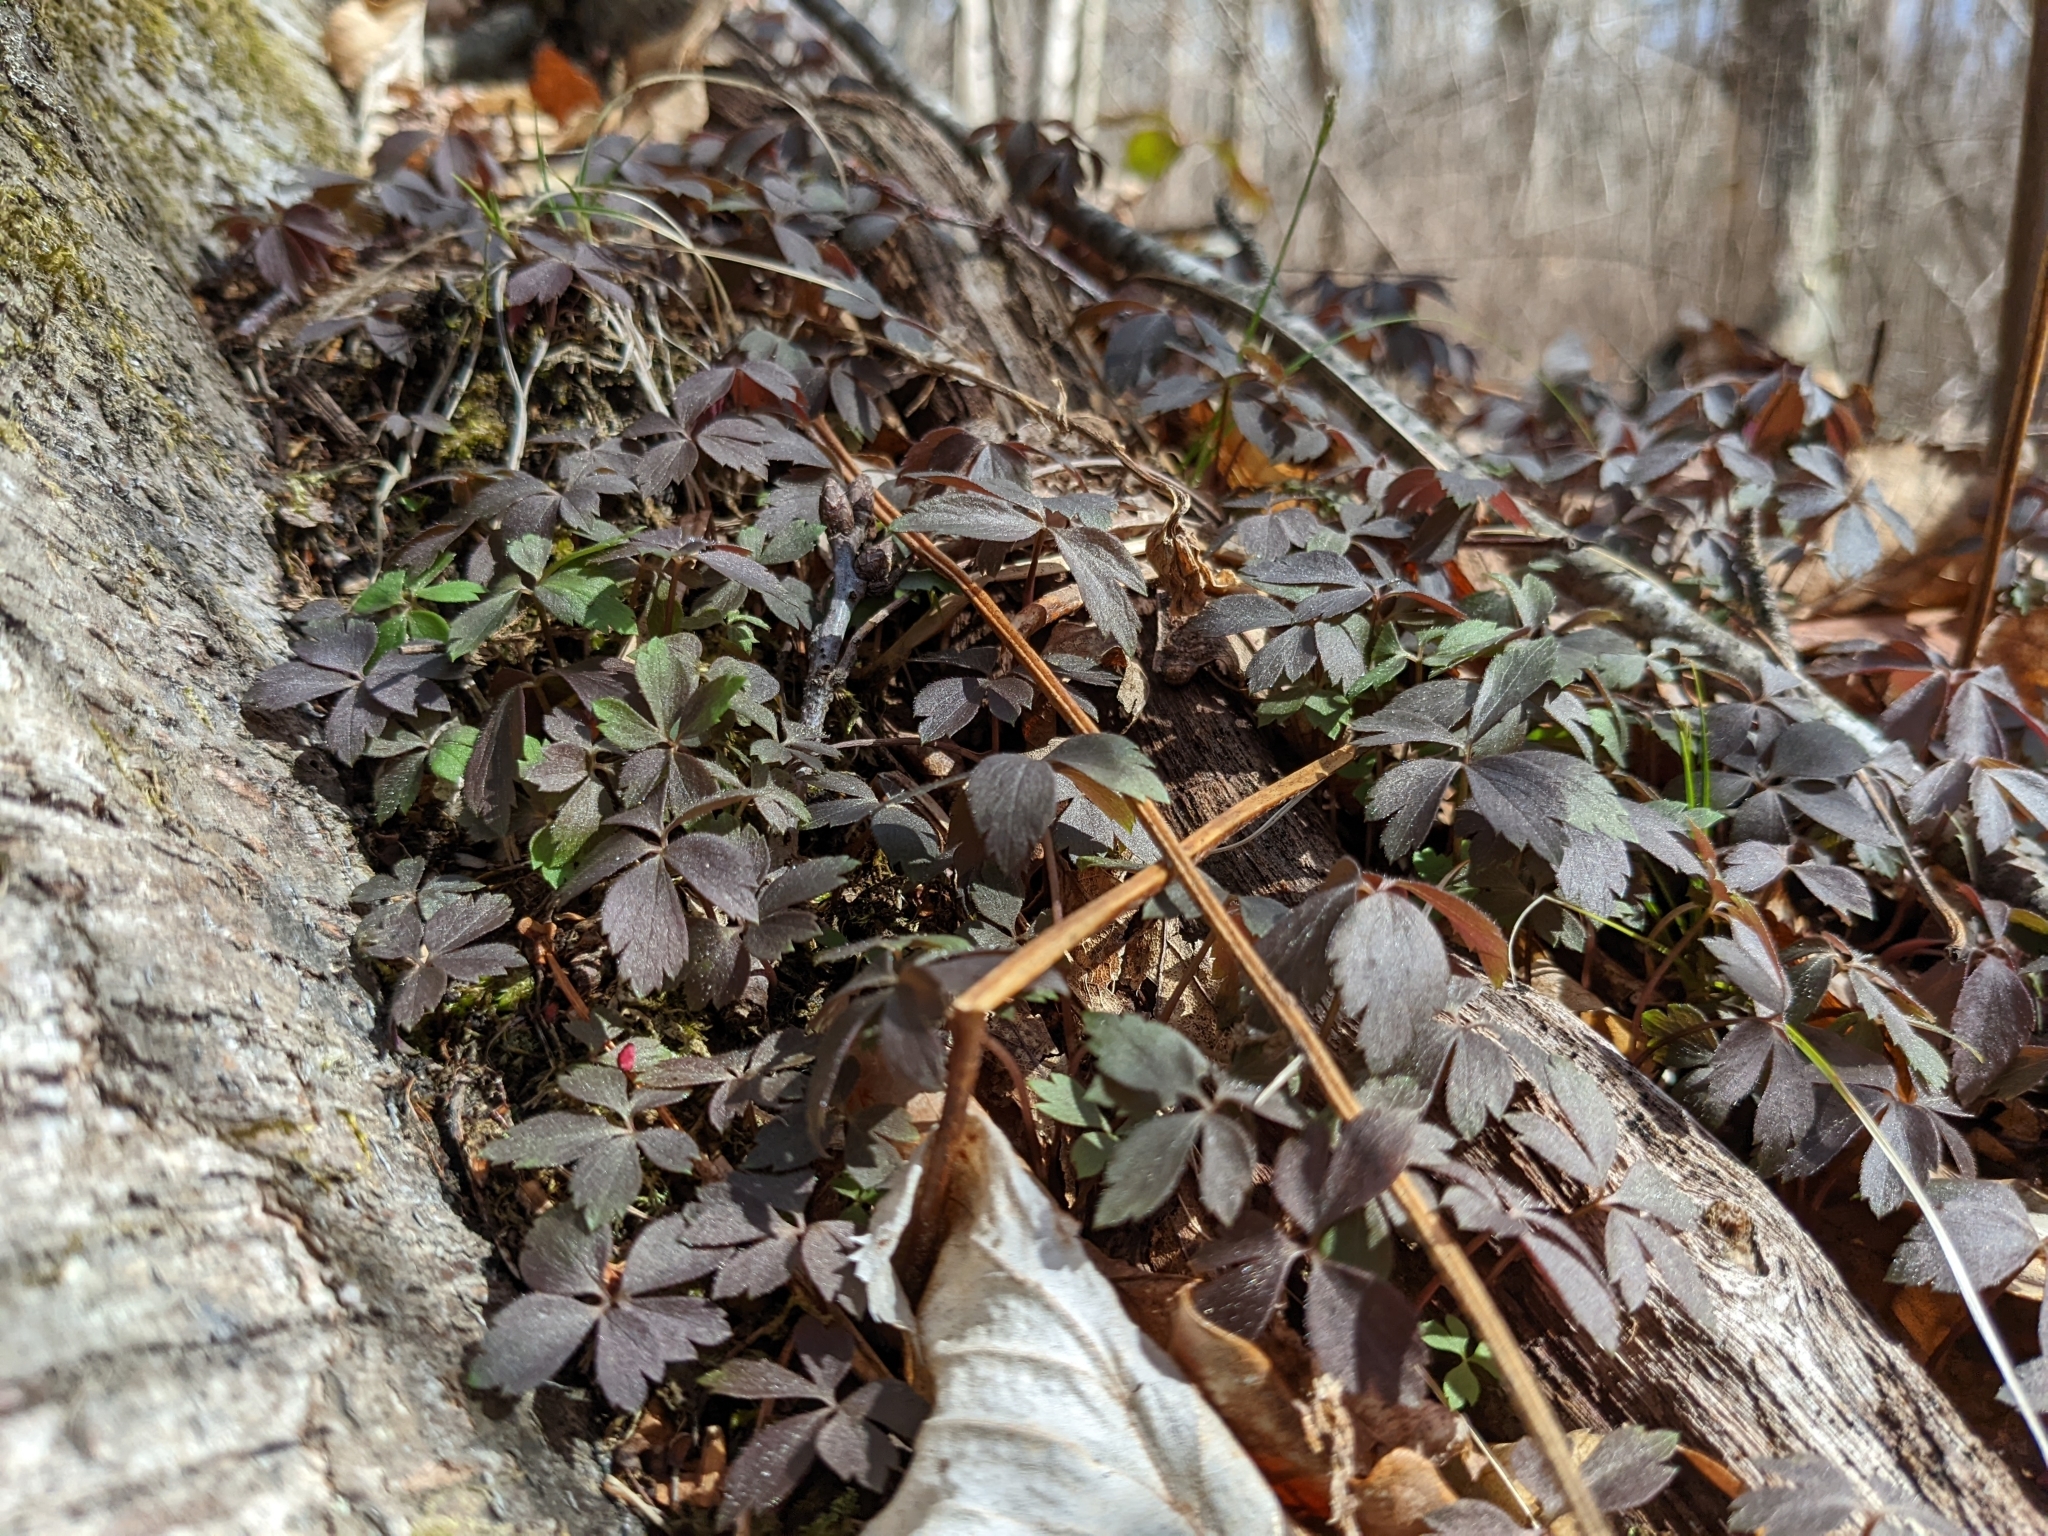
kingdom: Plantae
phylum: Tracheophyta
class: Magnoliopsida
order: Ranunculales
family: Ranunculaceae
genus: Anemone
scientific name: Anemone quinquefolia
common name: Wood anemone
